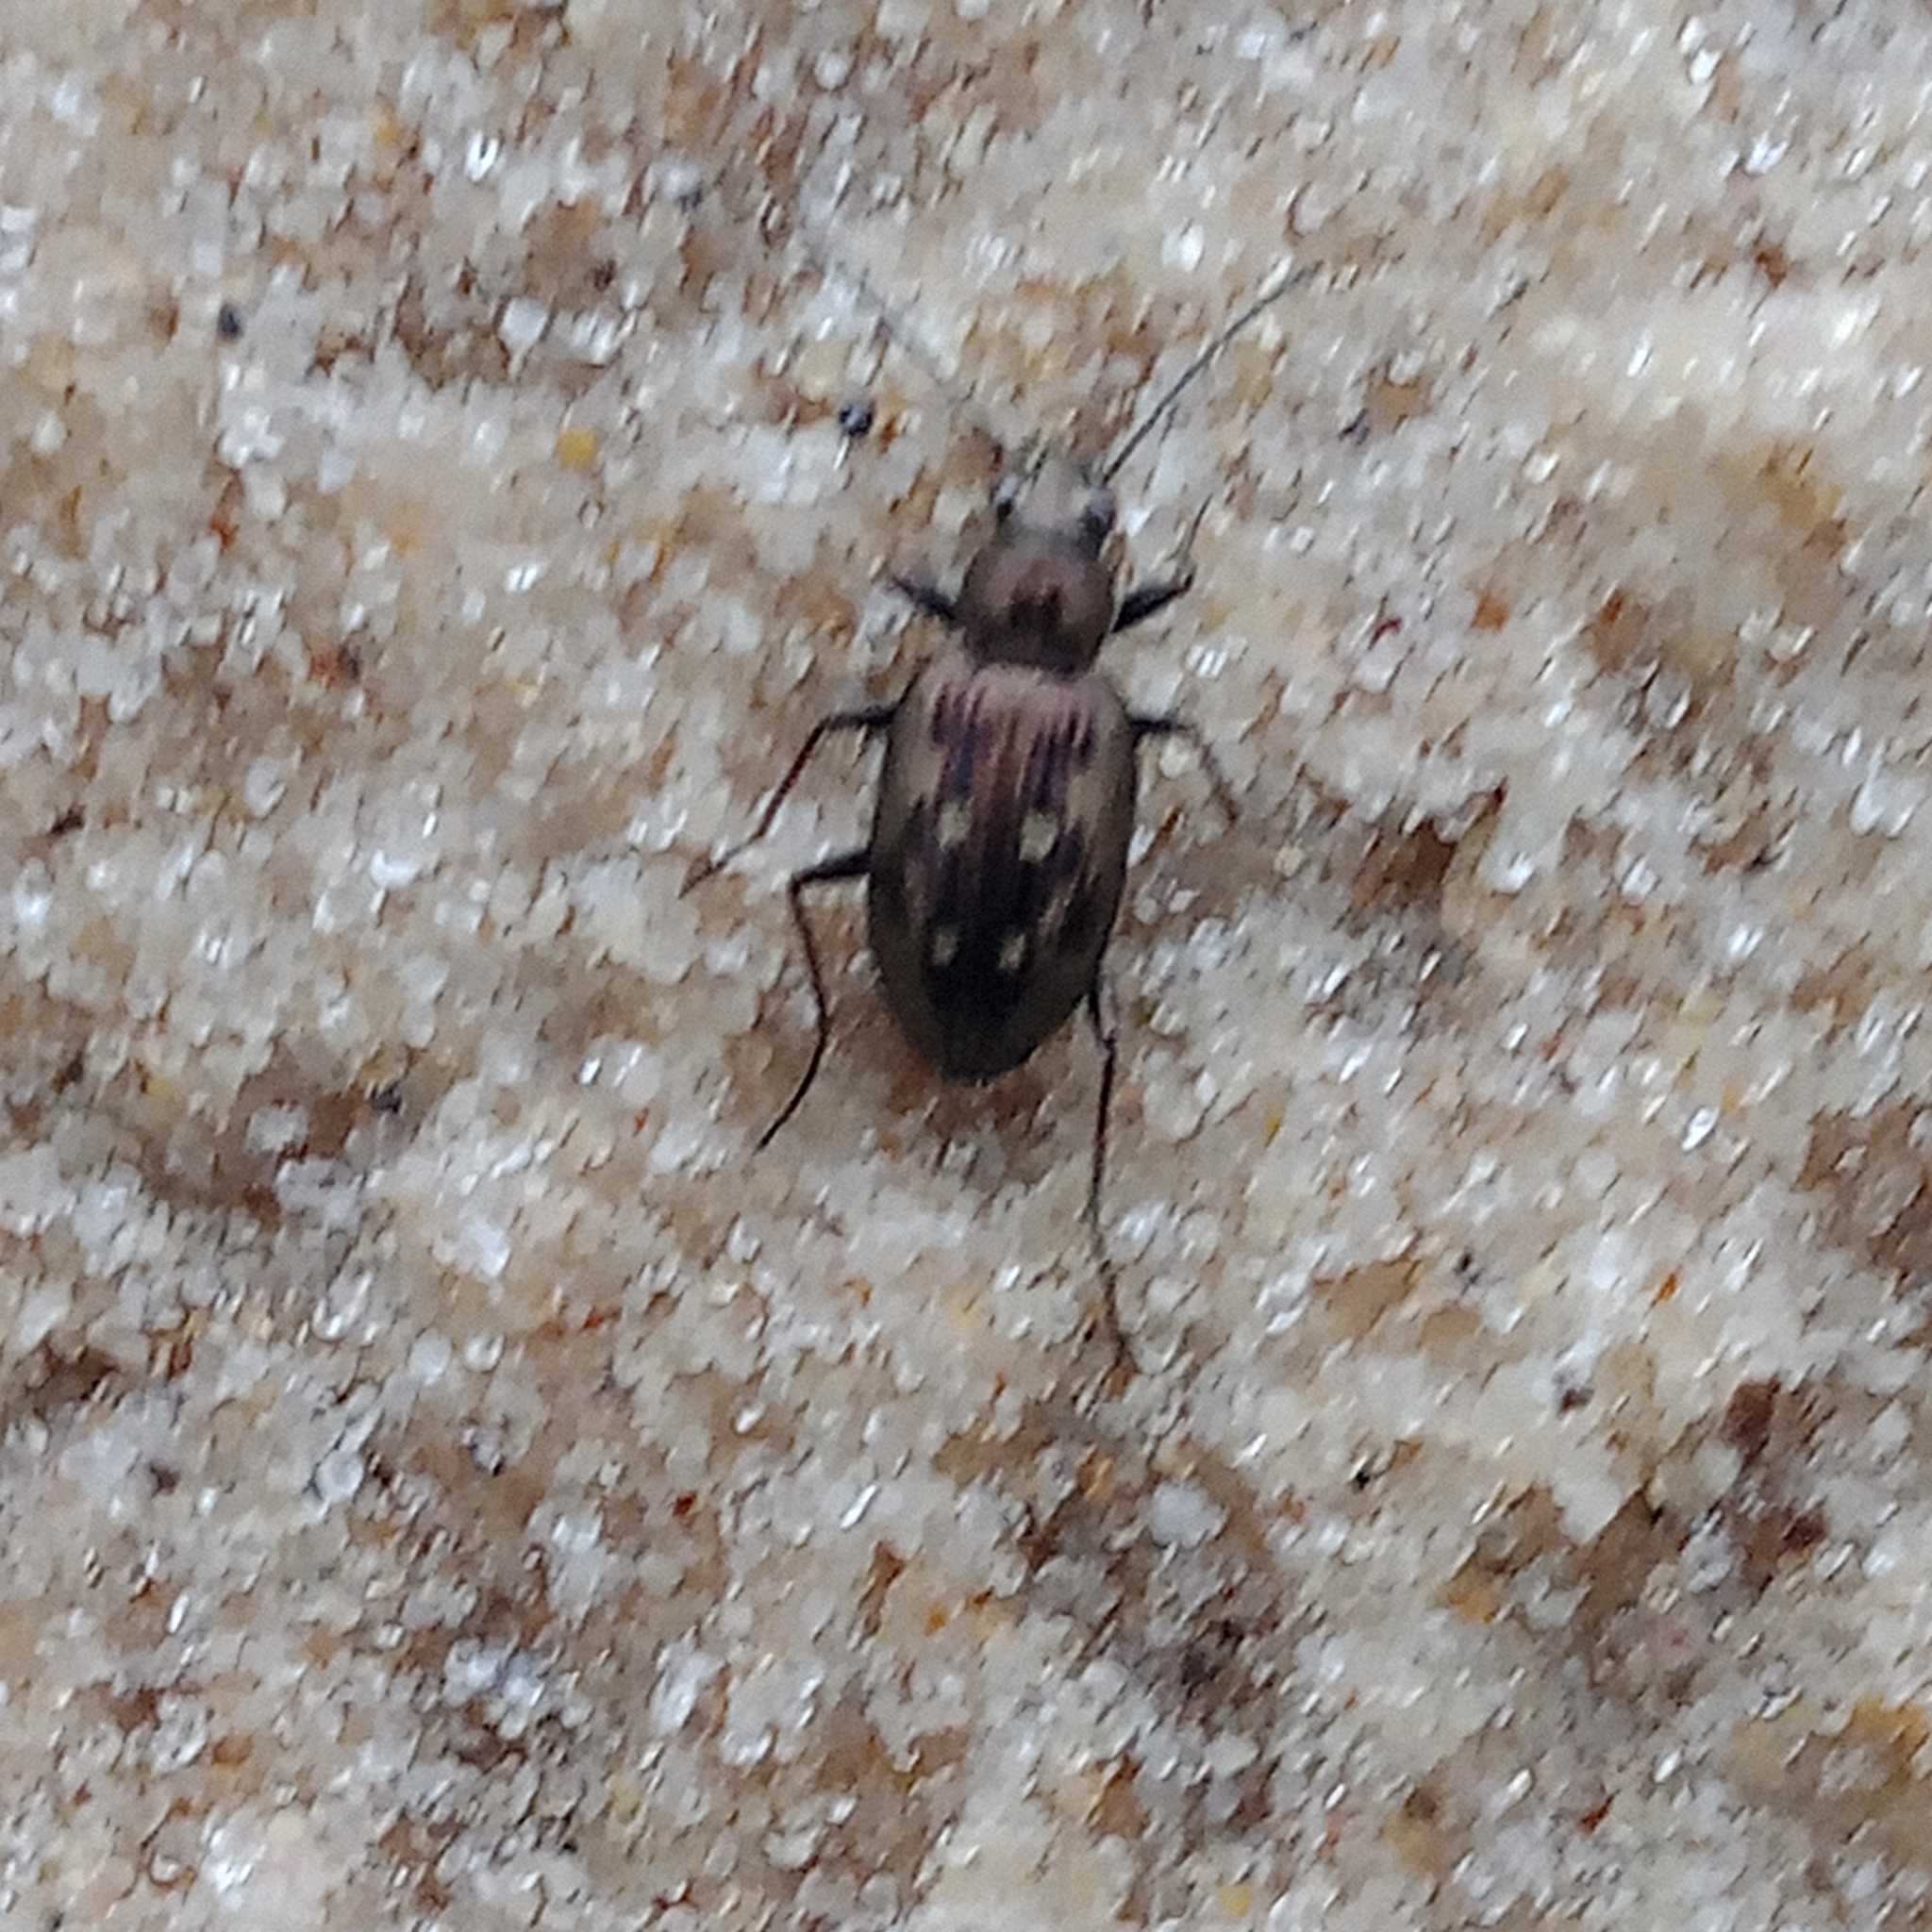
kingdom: Animalia
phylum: Arthropoda
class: Insecta
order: Coleoptera
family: Carabidae
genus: Bembidion
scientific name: Bembidion litorale
